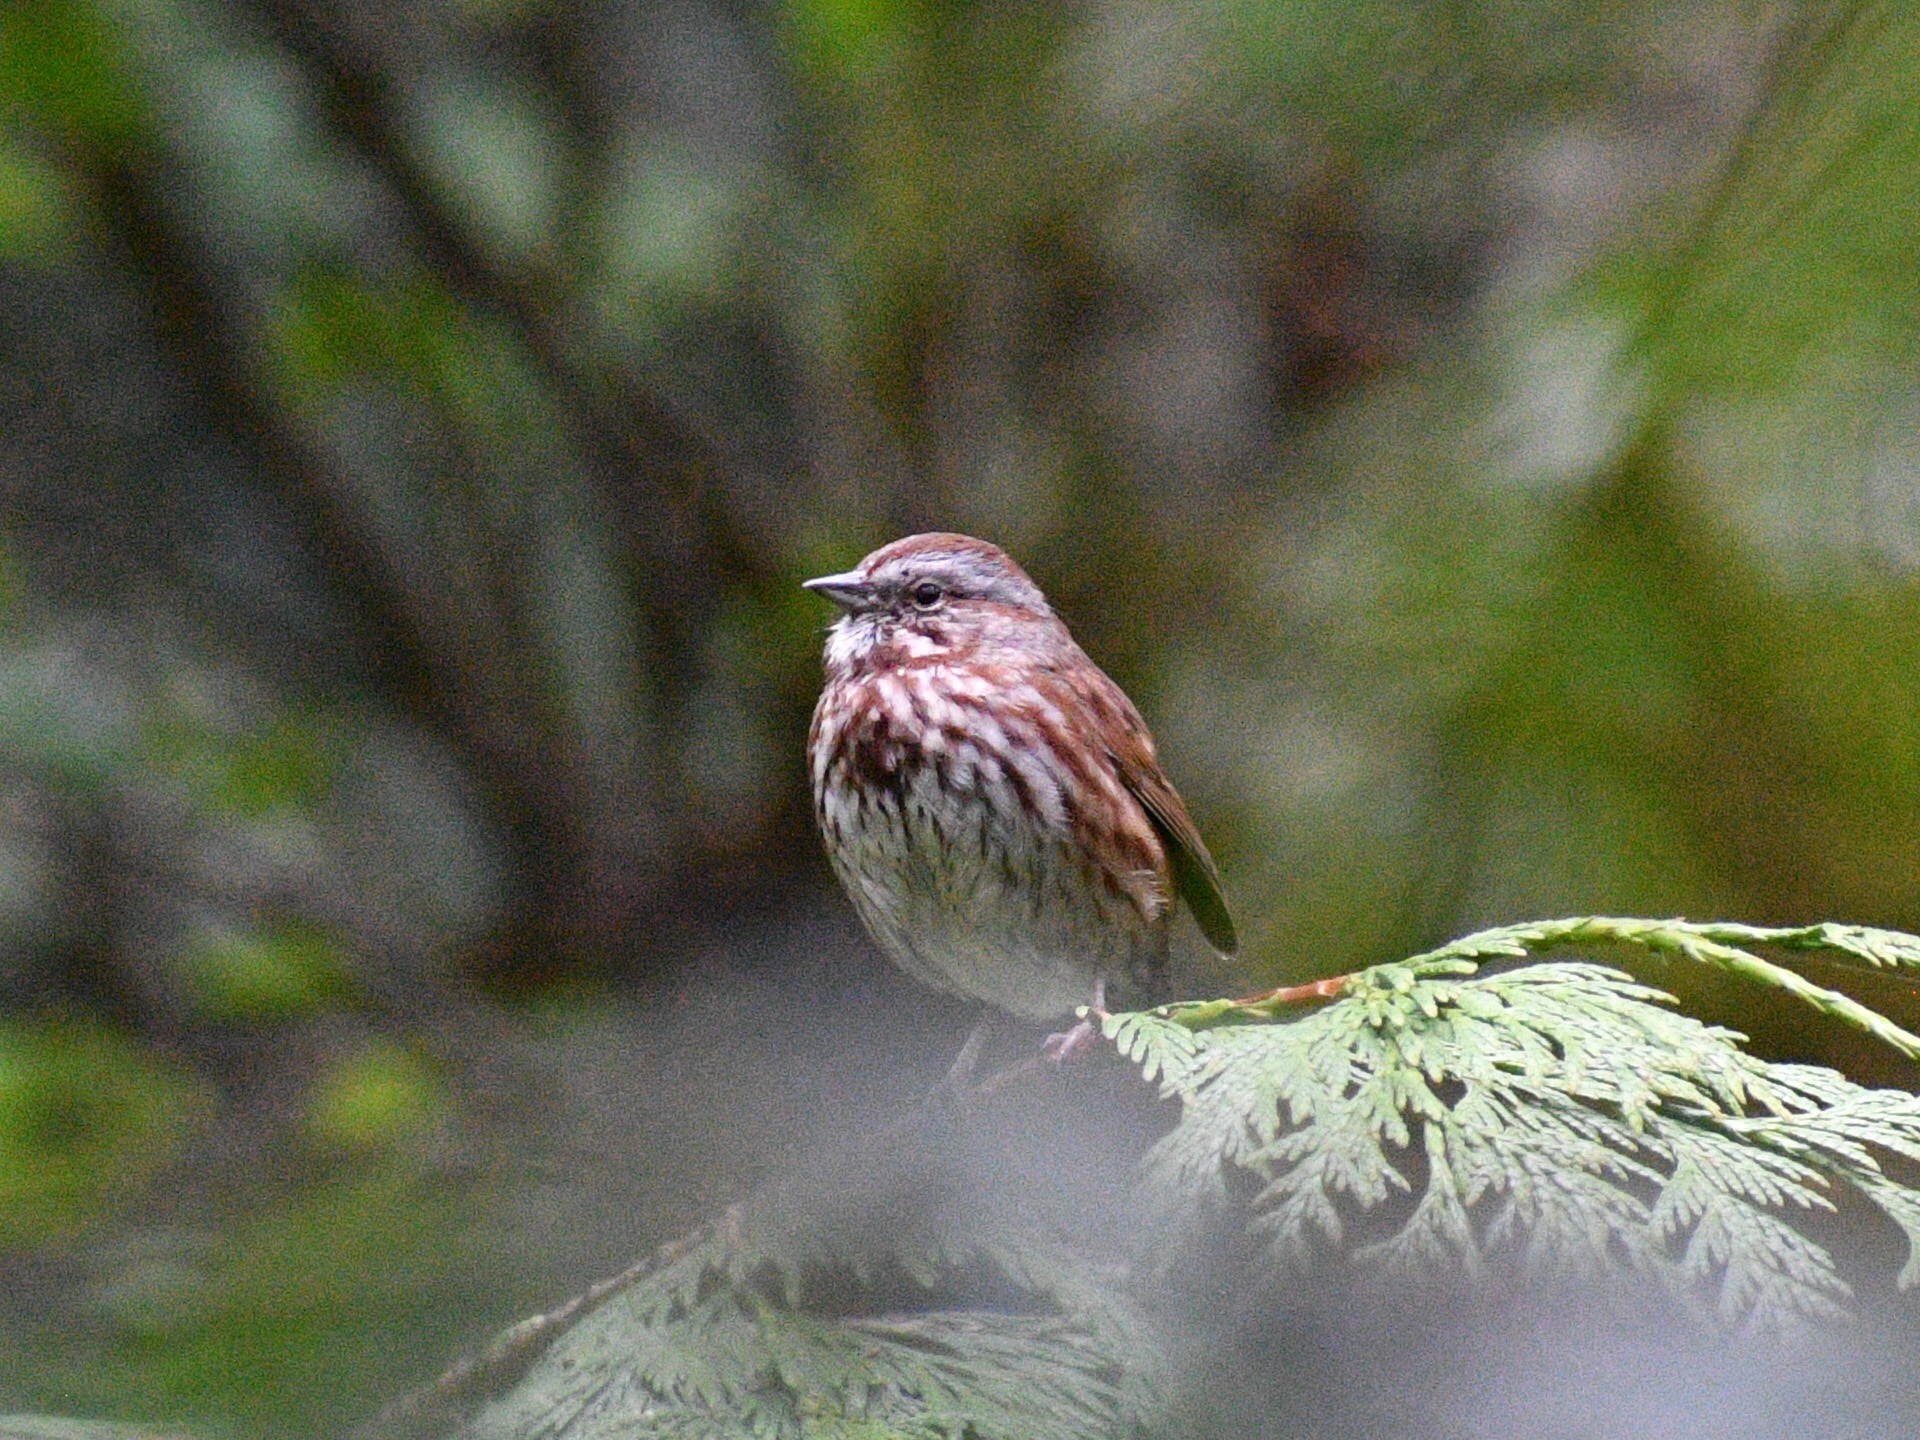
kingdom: Animalia
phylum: Chordata
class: Aves
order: Passeriformes
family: Passerellidae
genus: Melospiza
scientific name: Melospiza melodia
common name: Song sparrow
